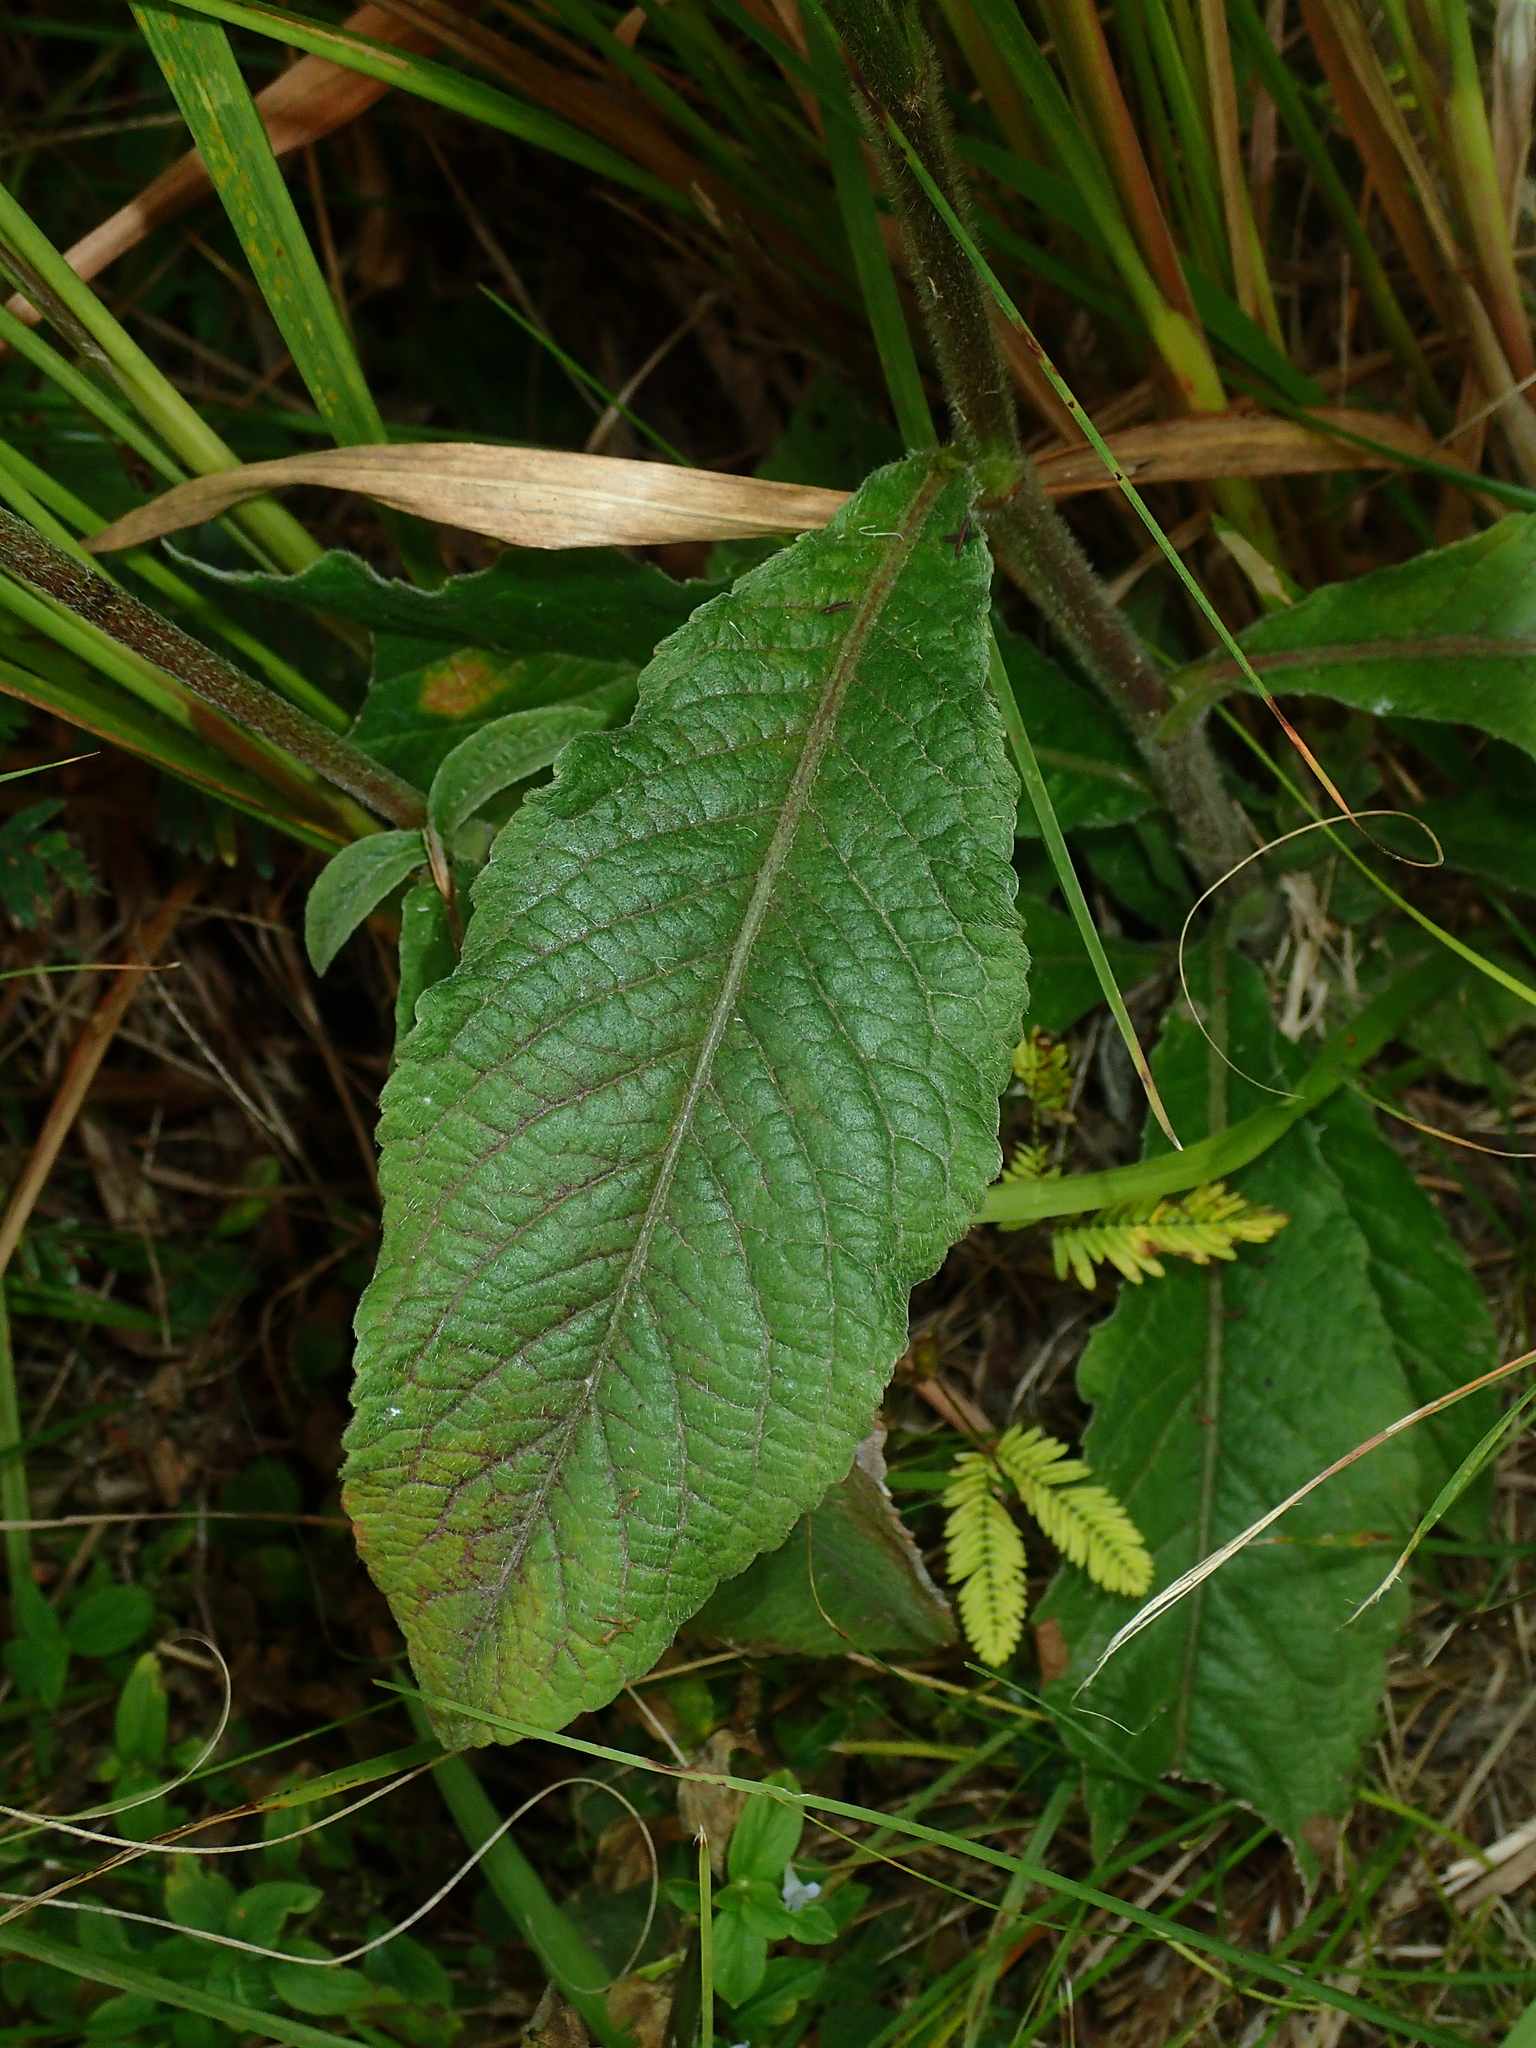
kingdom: Plantae
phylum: Tracheophyta
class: Magnoliopsida
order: Asterales
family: Asteraceae
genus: Elephantopus
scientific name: Elephantopus mollis
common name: Soft elephantsfoot
